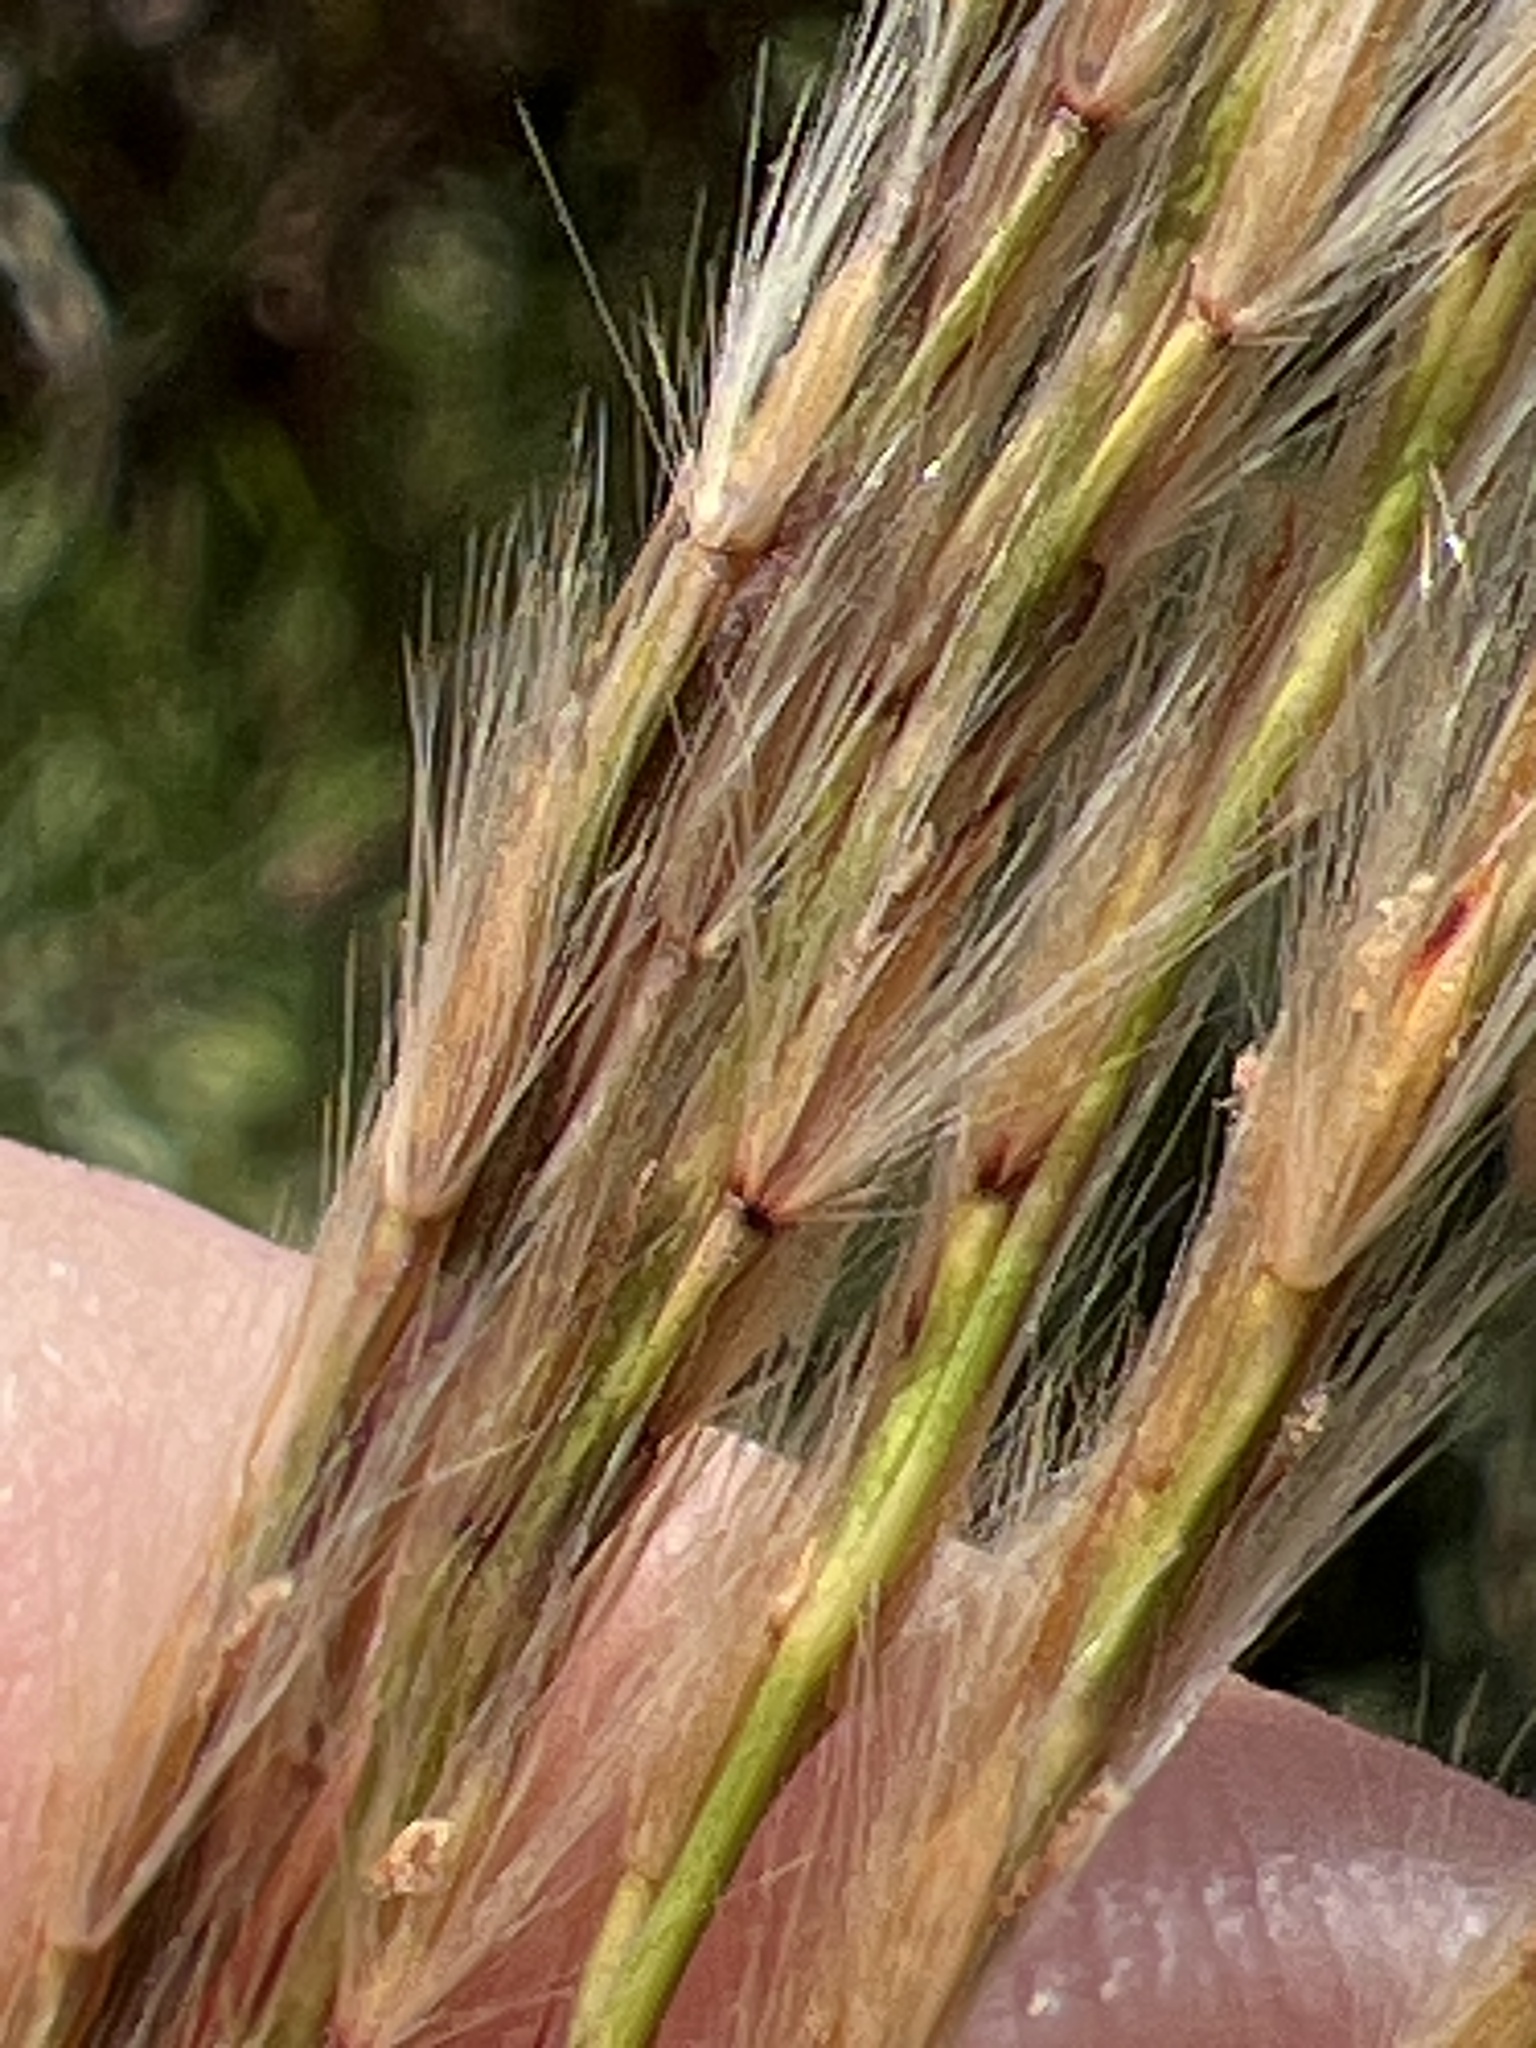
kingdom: Plantae
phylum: Tracheophyta
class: Liliopsida
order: Poales
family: Poaceae
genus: Miscanthus
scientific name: Miscanthus sinensis
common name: Chinese silvergrass
